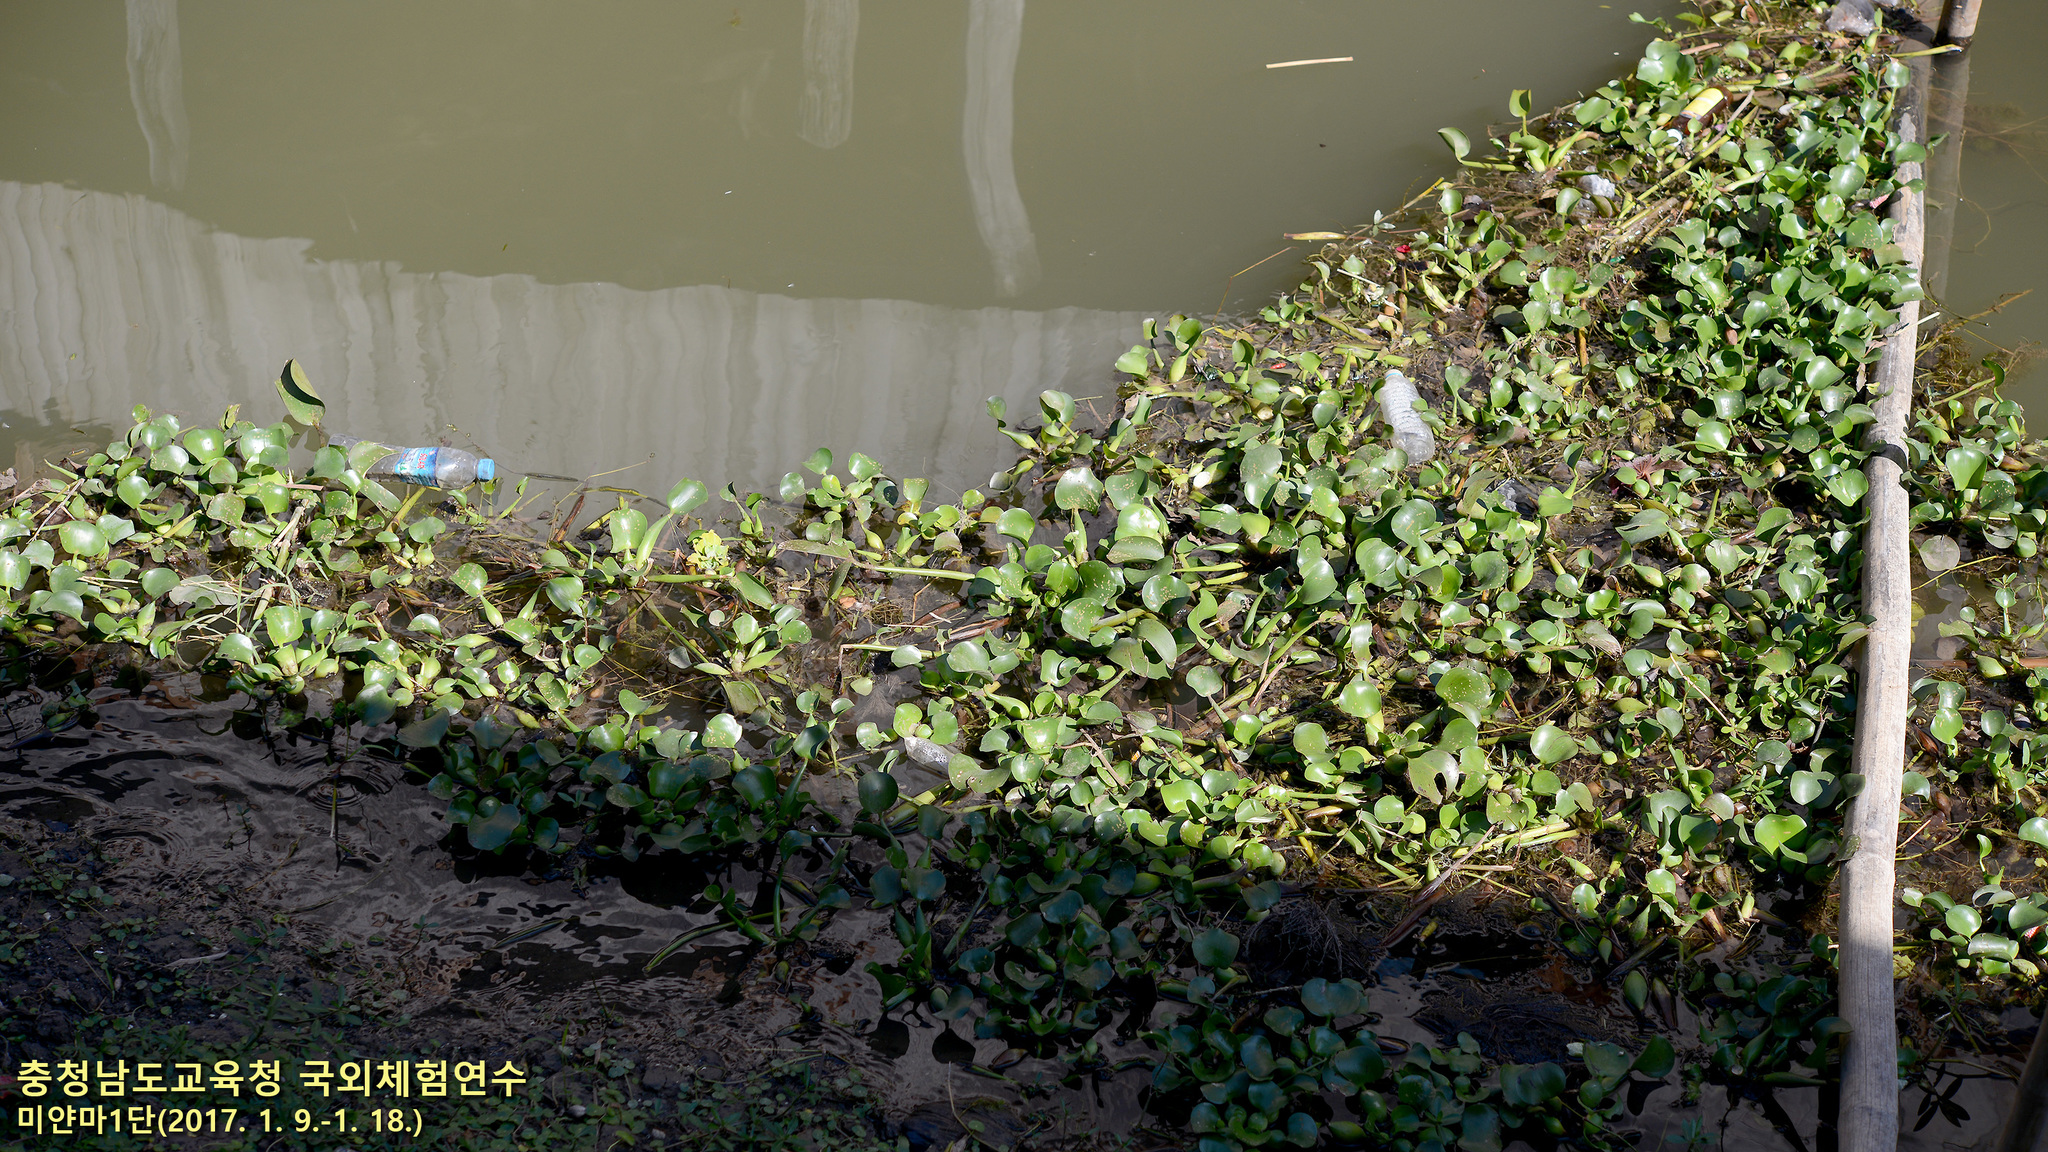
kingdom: Plantae
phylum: Tracheophyta
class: Liliopsida
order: Commelinales
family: Pontederiaceae
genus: Pontederia
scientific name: Pontederia crassipes
